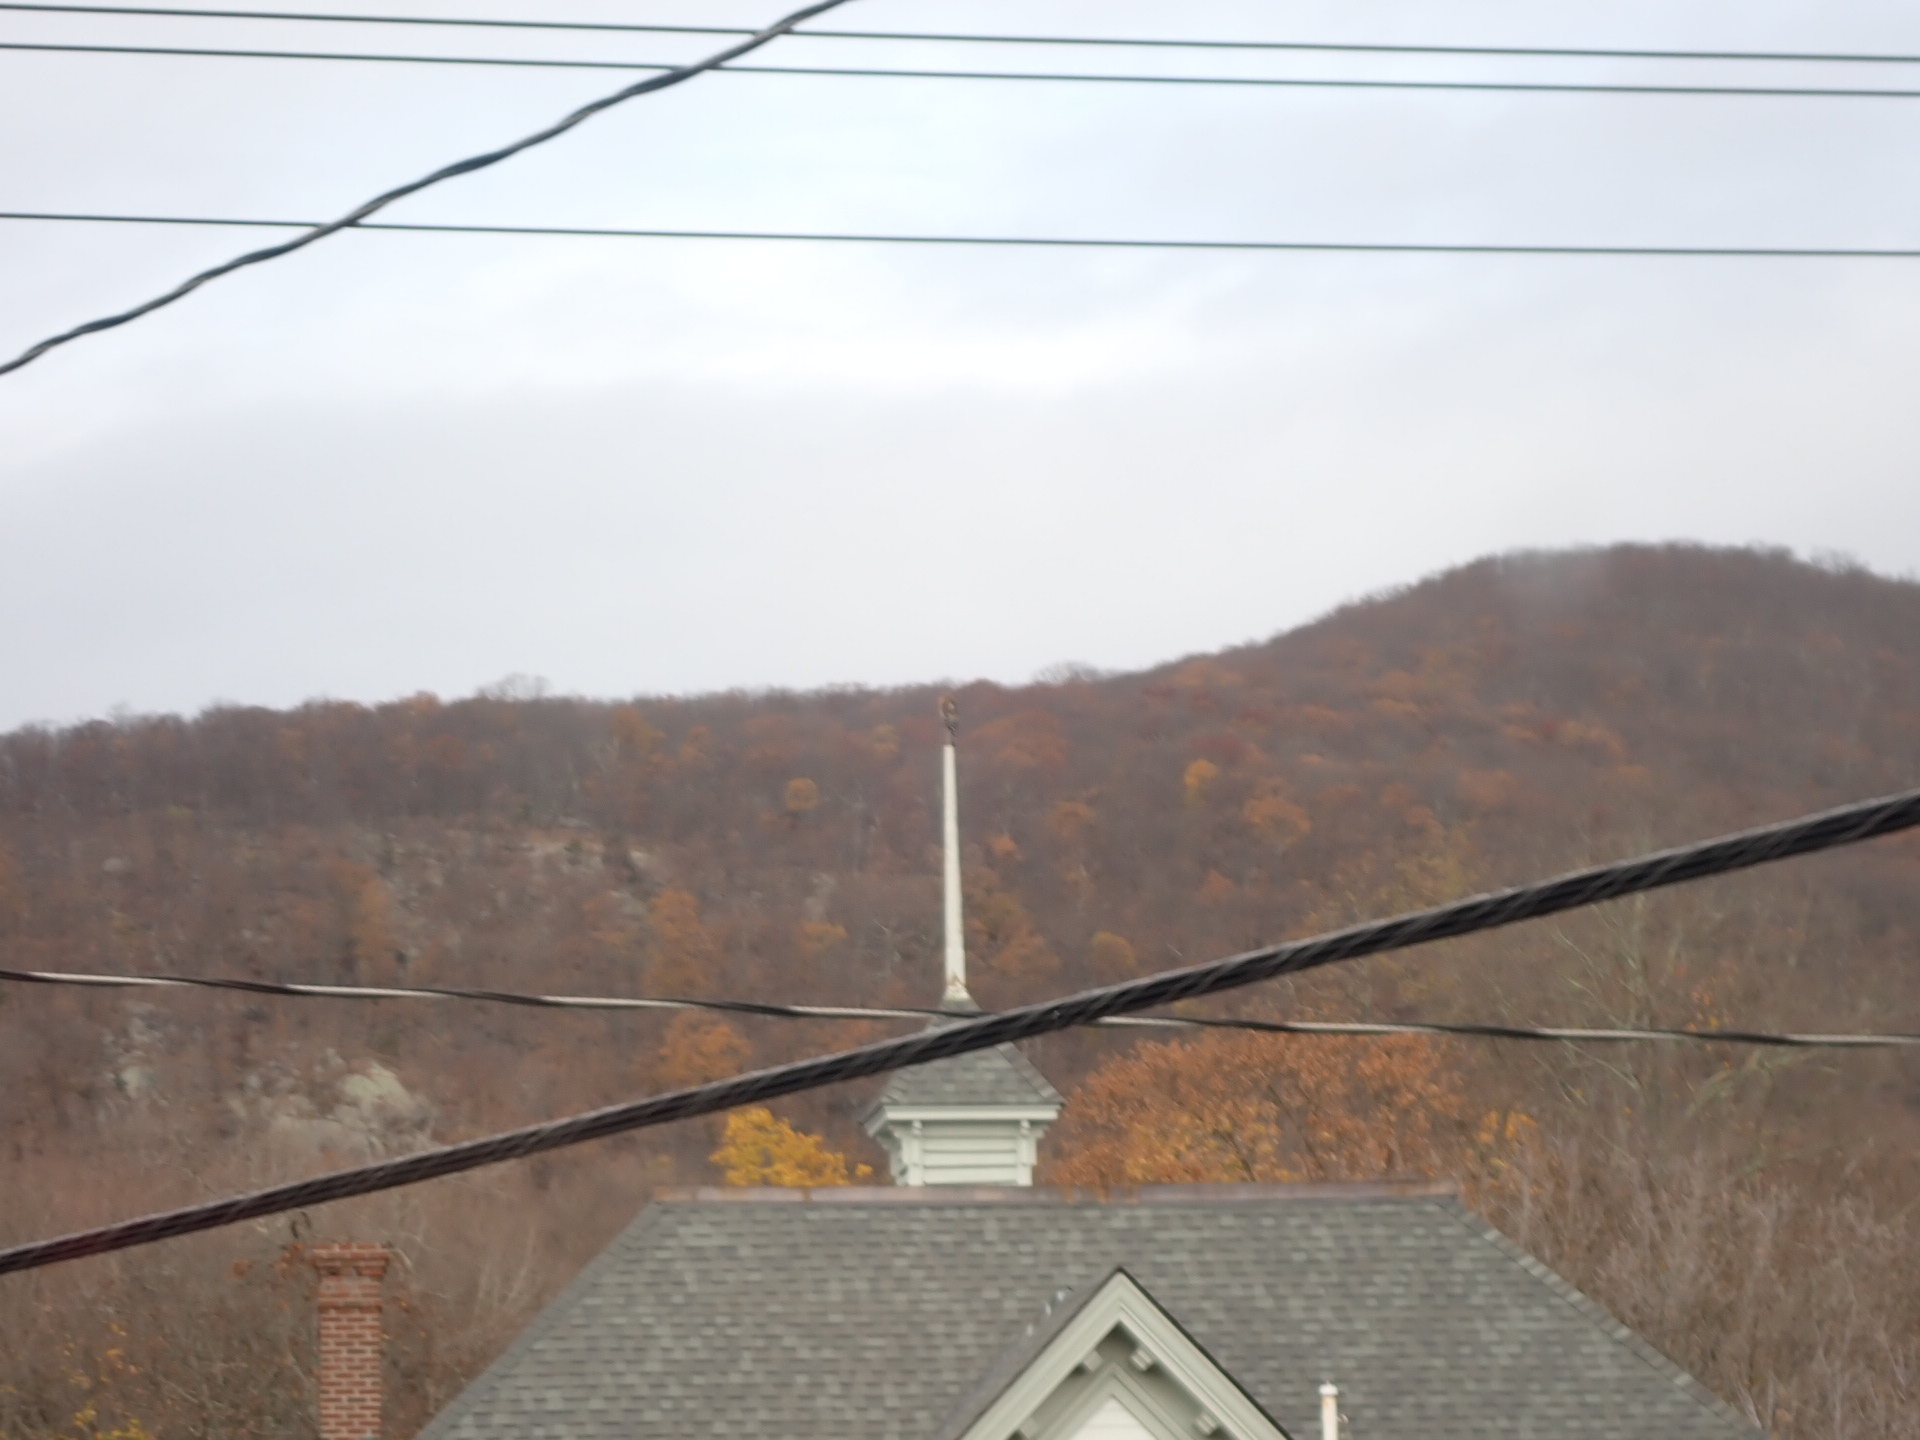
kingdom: Animalia
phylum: Chordata
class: Aves
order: Accipitriformes
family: Accipitridae
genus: Buteo
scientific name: Buteo lineatus
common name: Red-shouldered hawk
